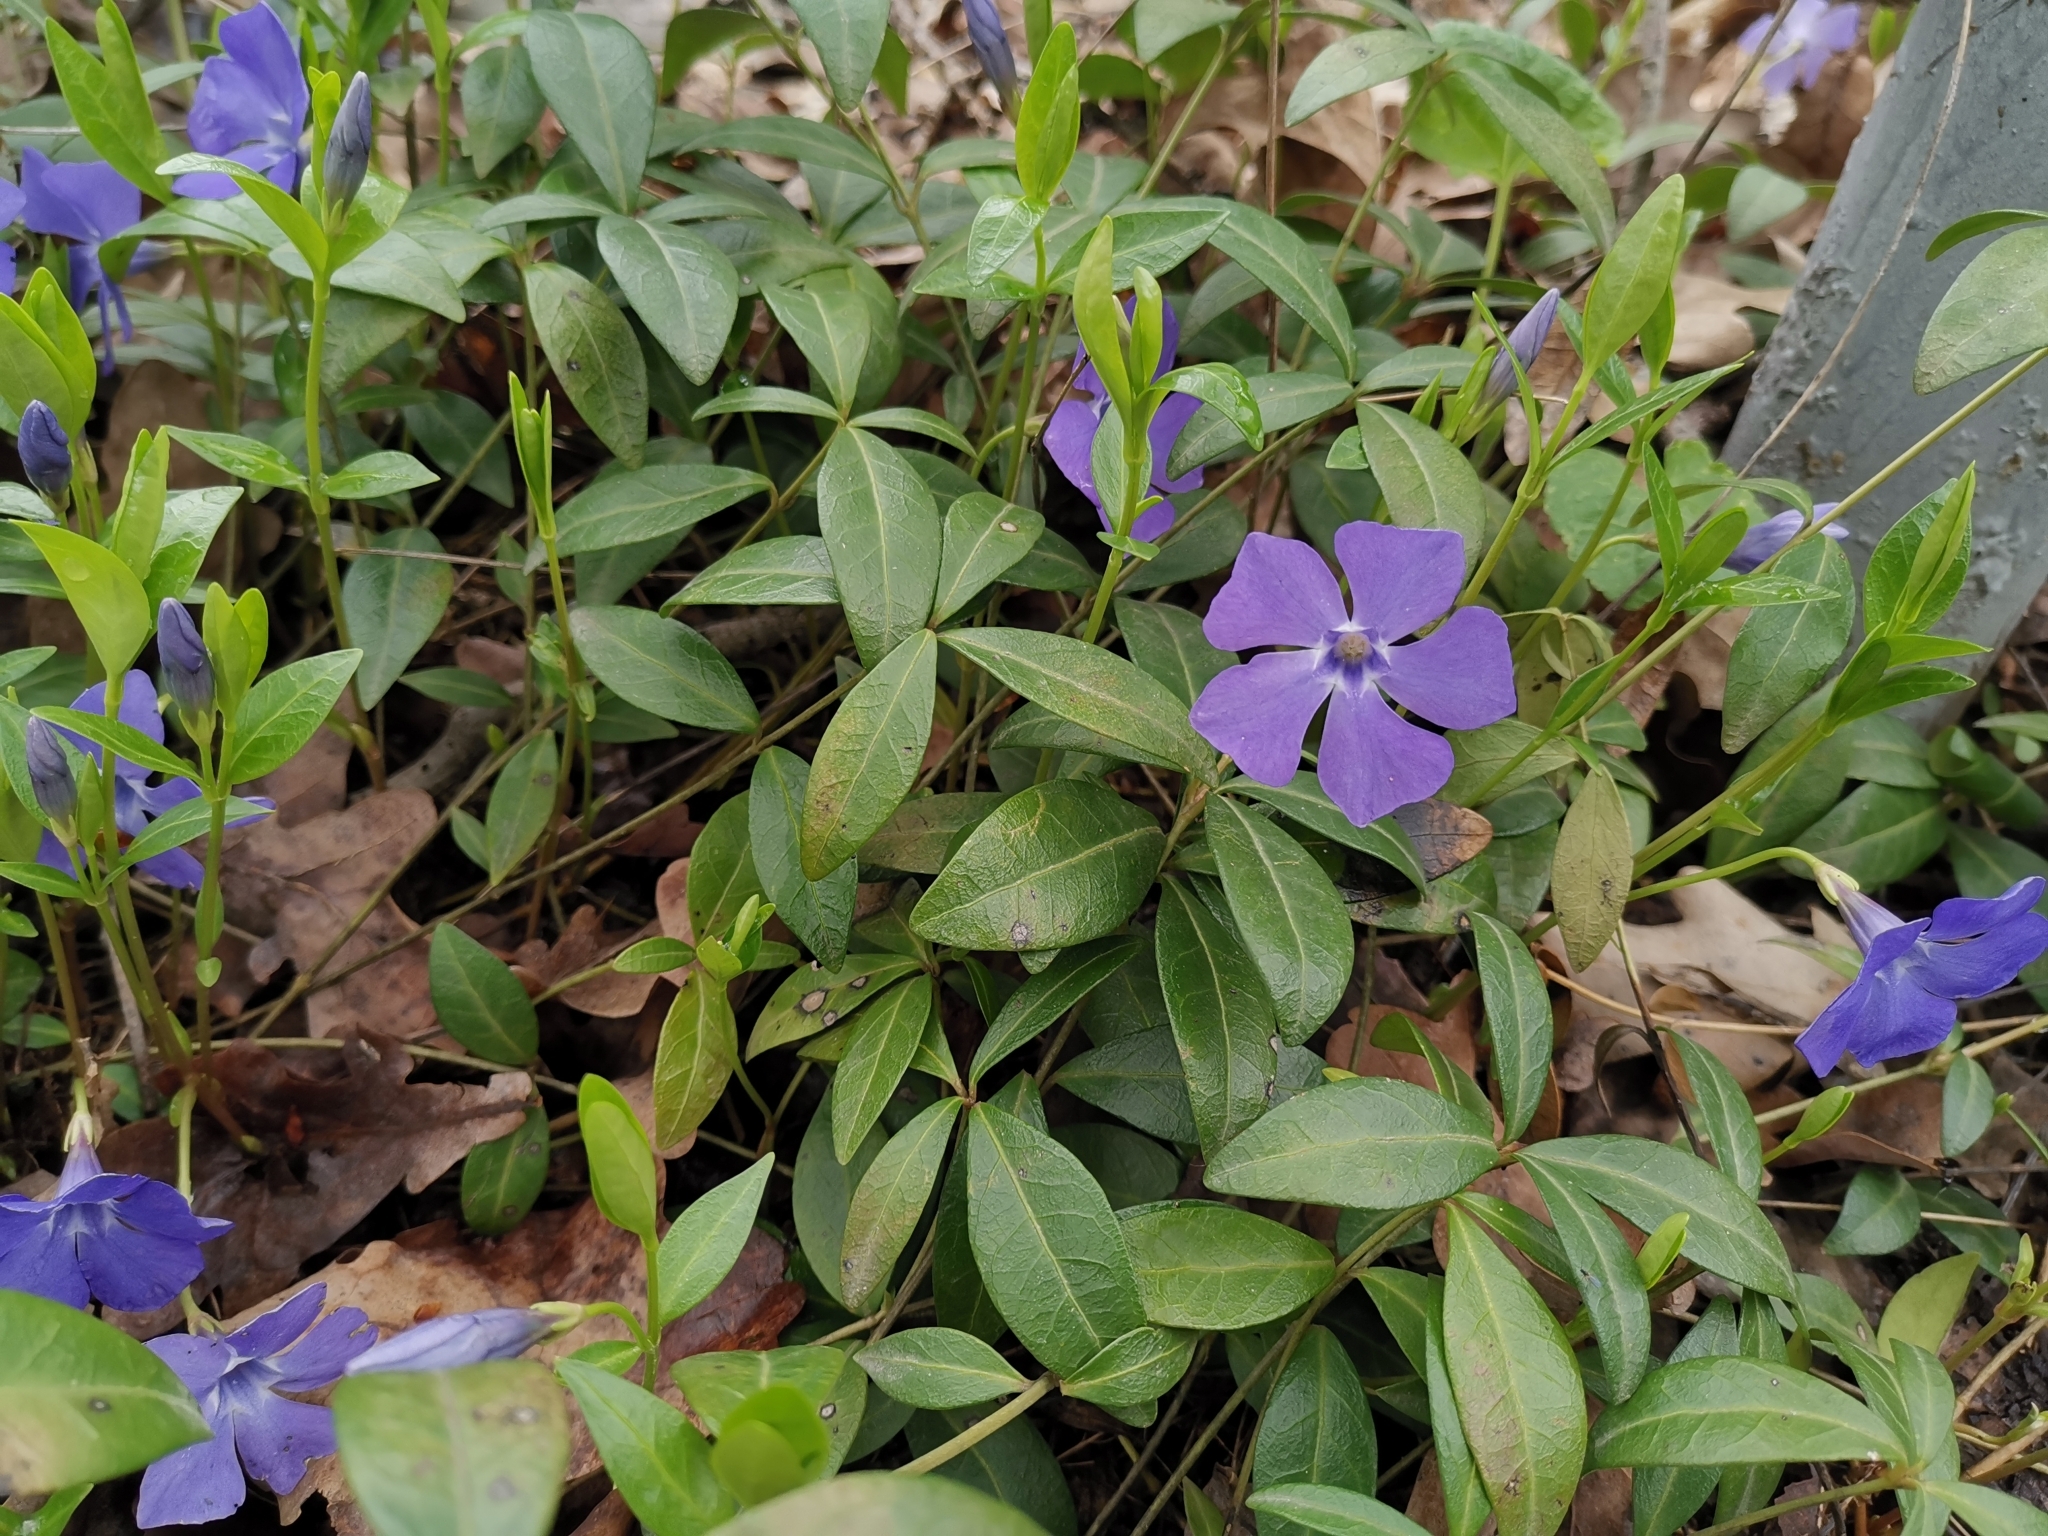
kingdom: Plantae
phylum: Tracheophyta
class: Magnoliopsida
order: Gentianales
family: Apocynaceae
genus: Vinca
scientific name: Vinca minor
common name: Lesser periwinkle
